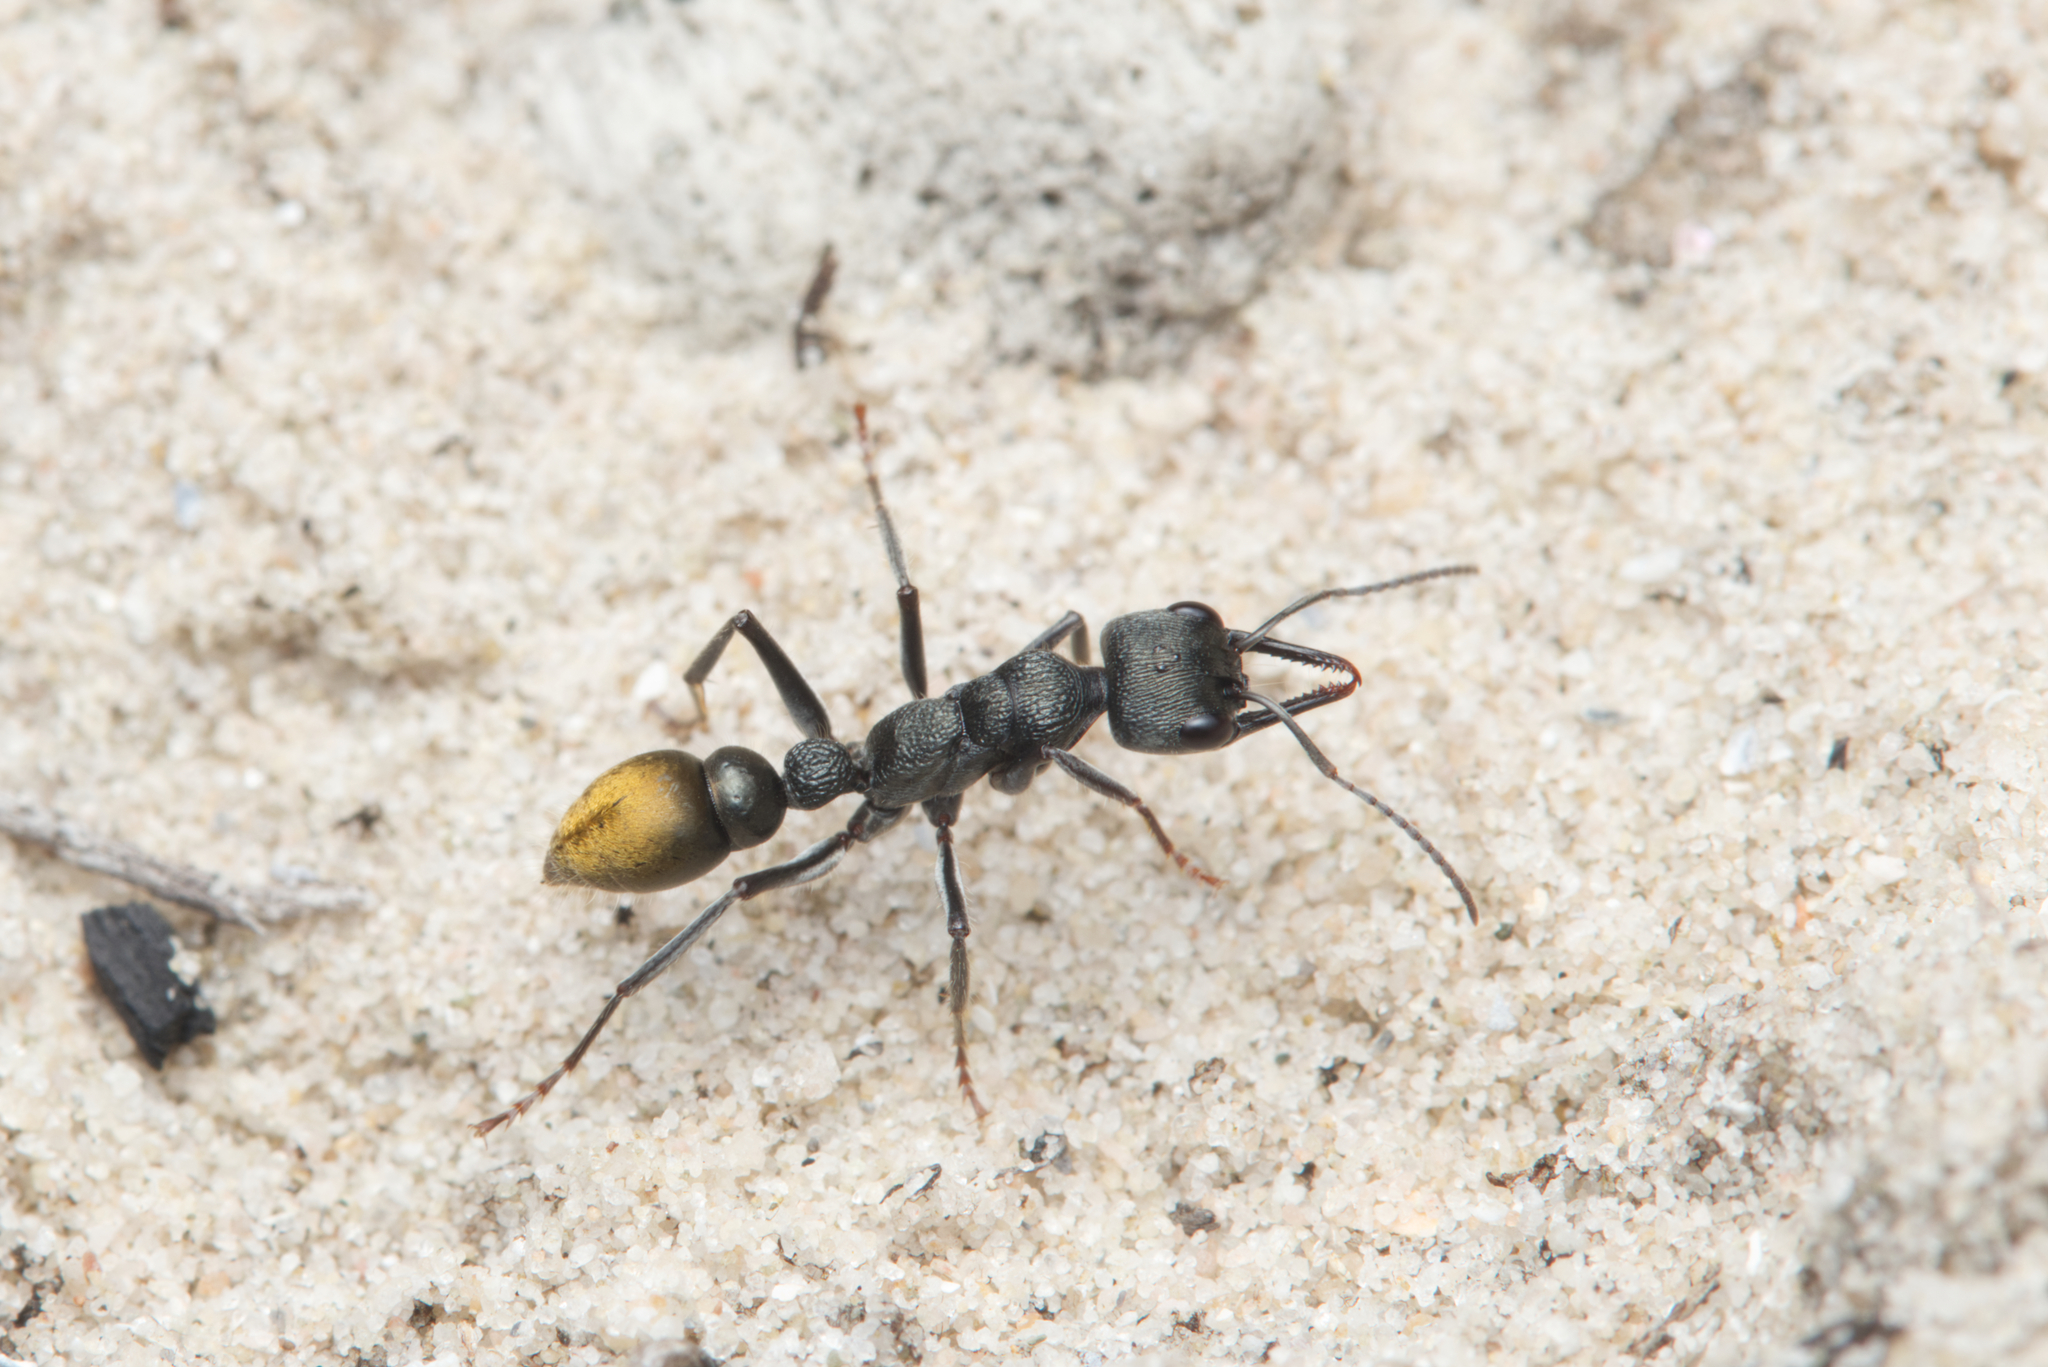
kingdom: Animalia
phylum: Arthropoda
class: Insecta
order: Hymenoptera
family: Formicidae
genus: Myrmecia
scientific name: Myrmecia gilberti
